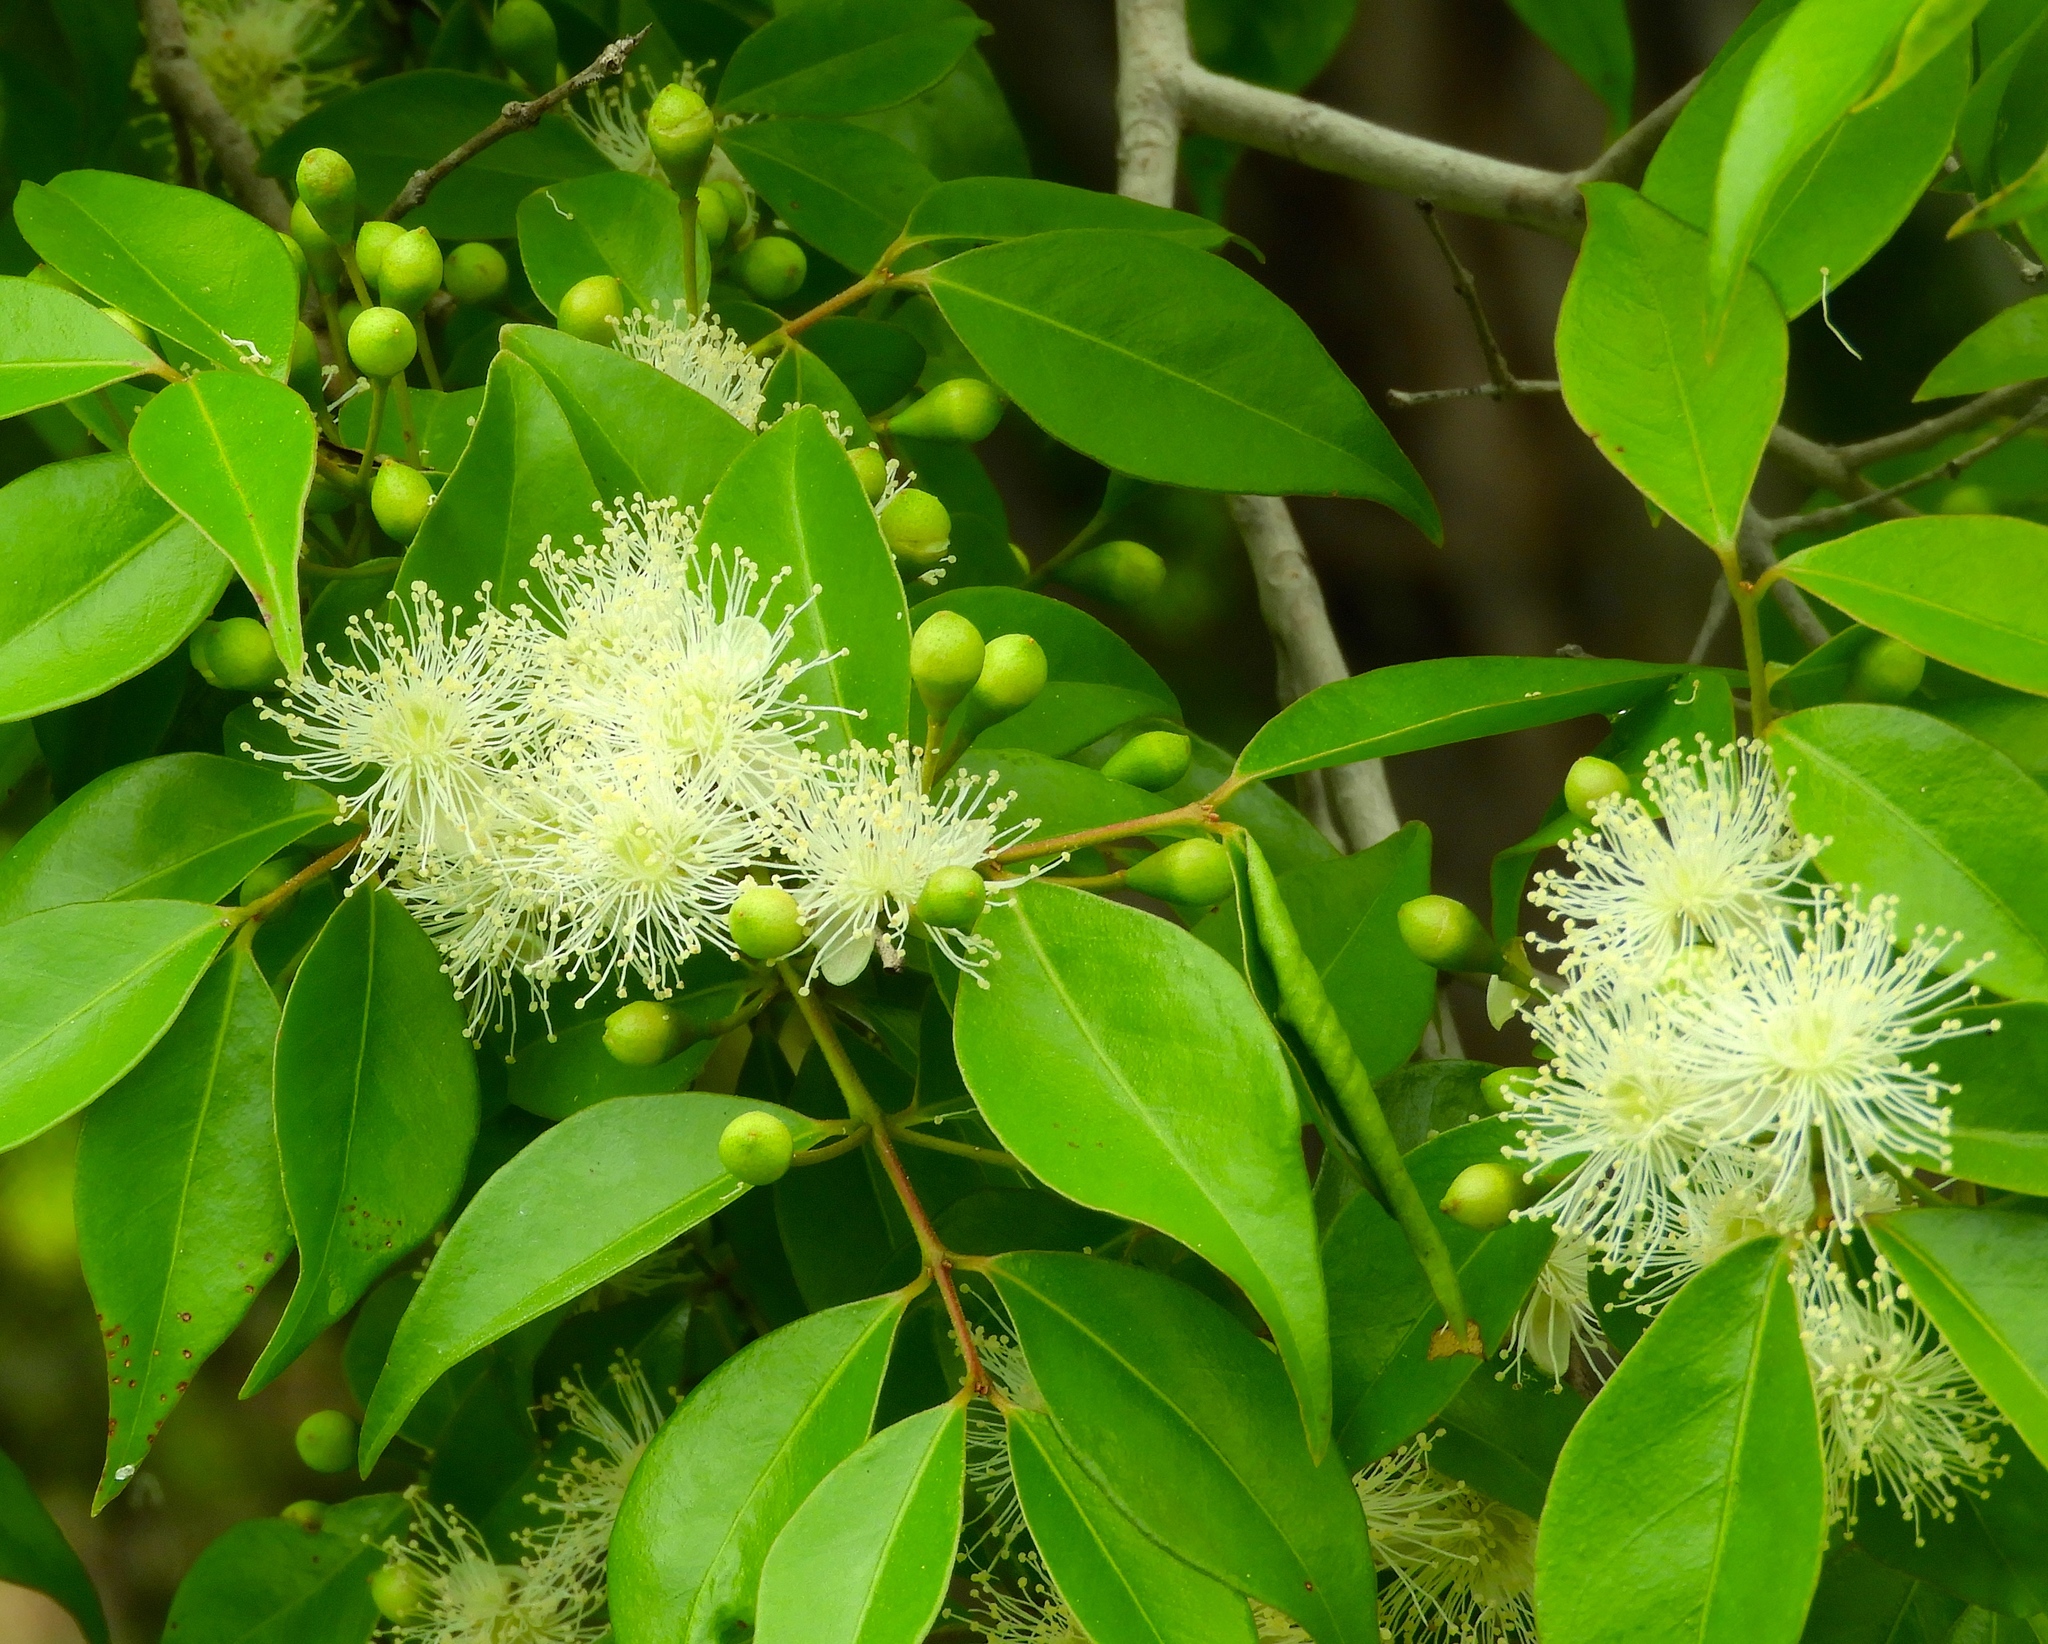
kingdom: Plantae
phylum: Tracheophyta
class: Magnoliopsida
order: Myrtales
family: Myrtaceae
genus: Psidium
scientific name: Psidium sartorianum
